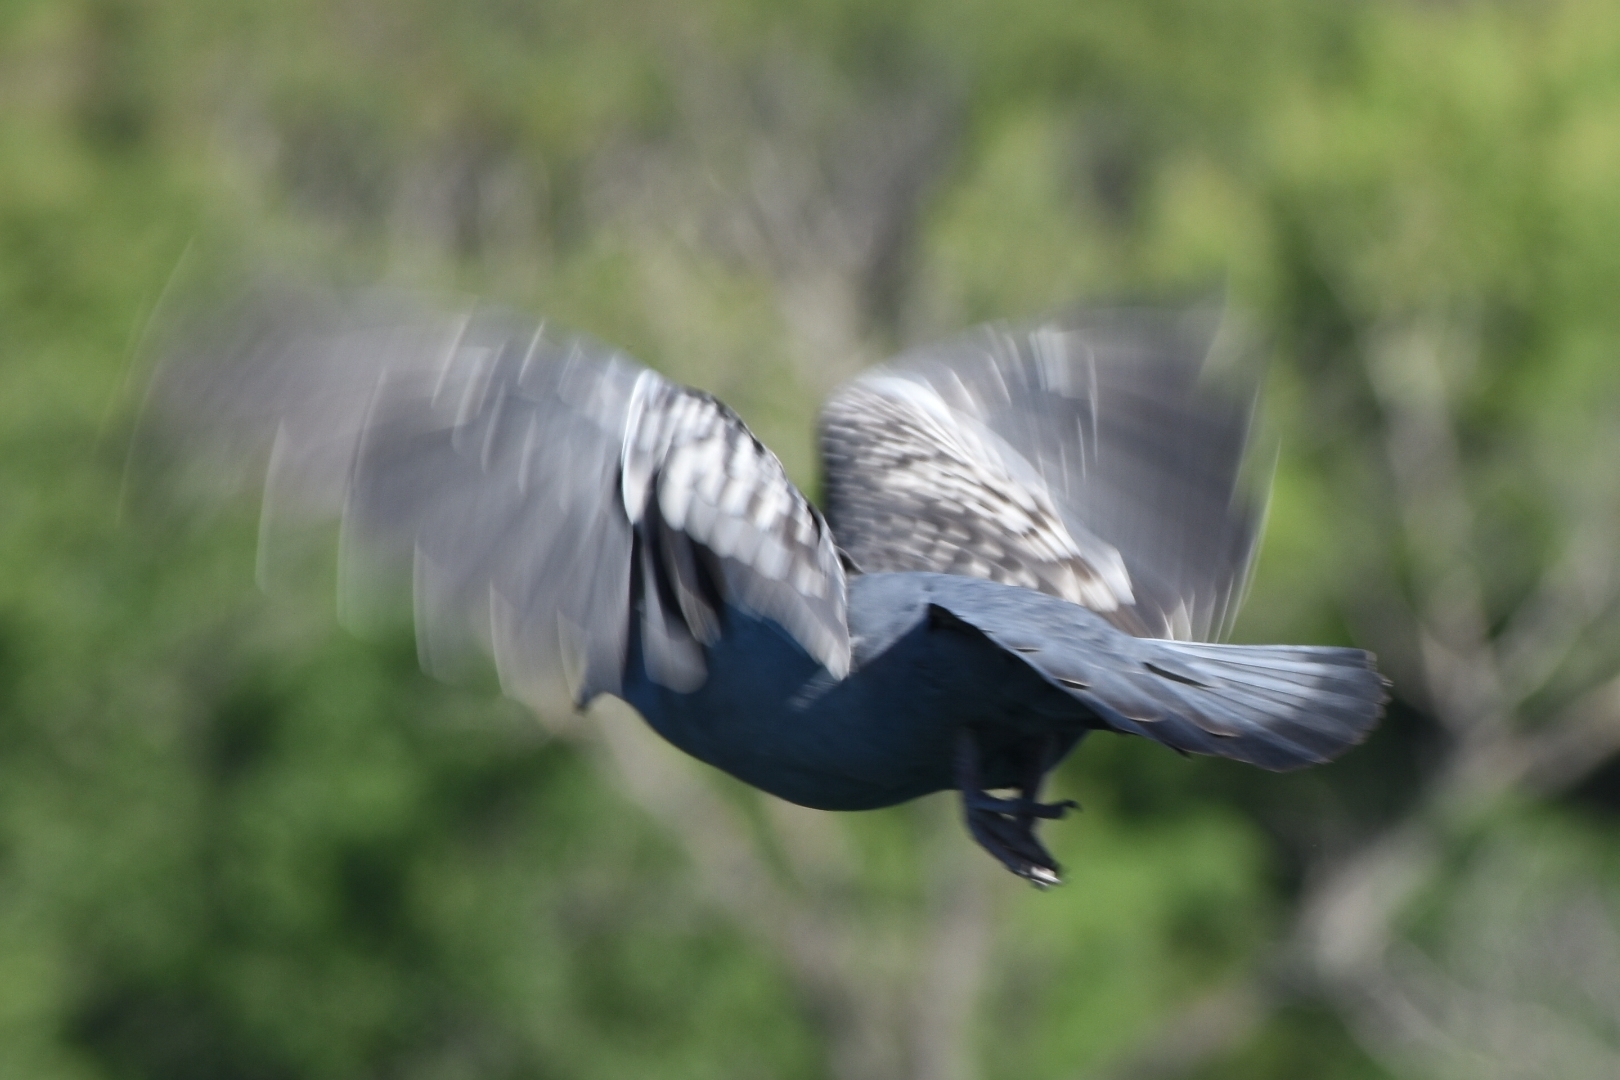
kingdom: Animalia
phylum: Chordata
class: Aves
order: Columbiformes
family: Columbidae
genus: Patagioenas
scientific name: Patagioenas maculosa
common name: Spot-winged pigeon
